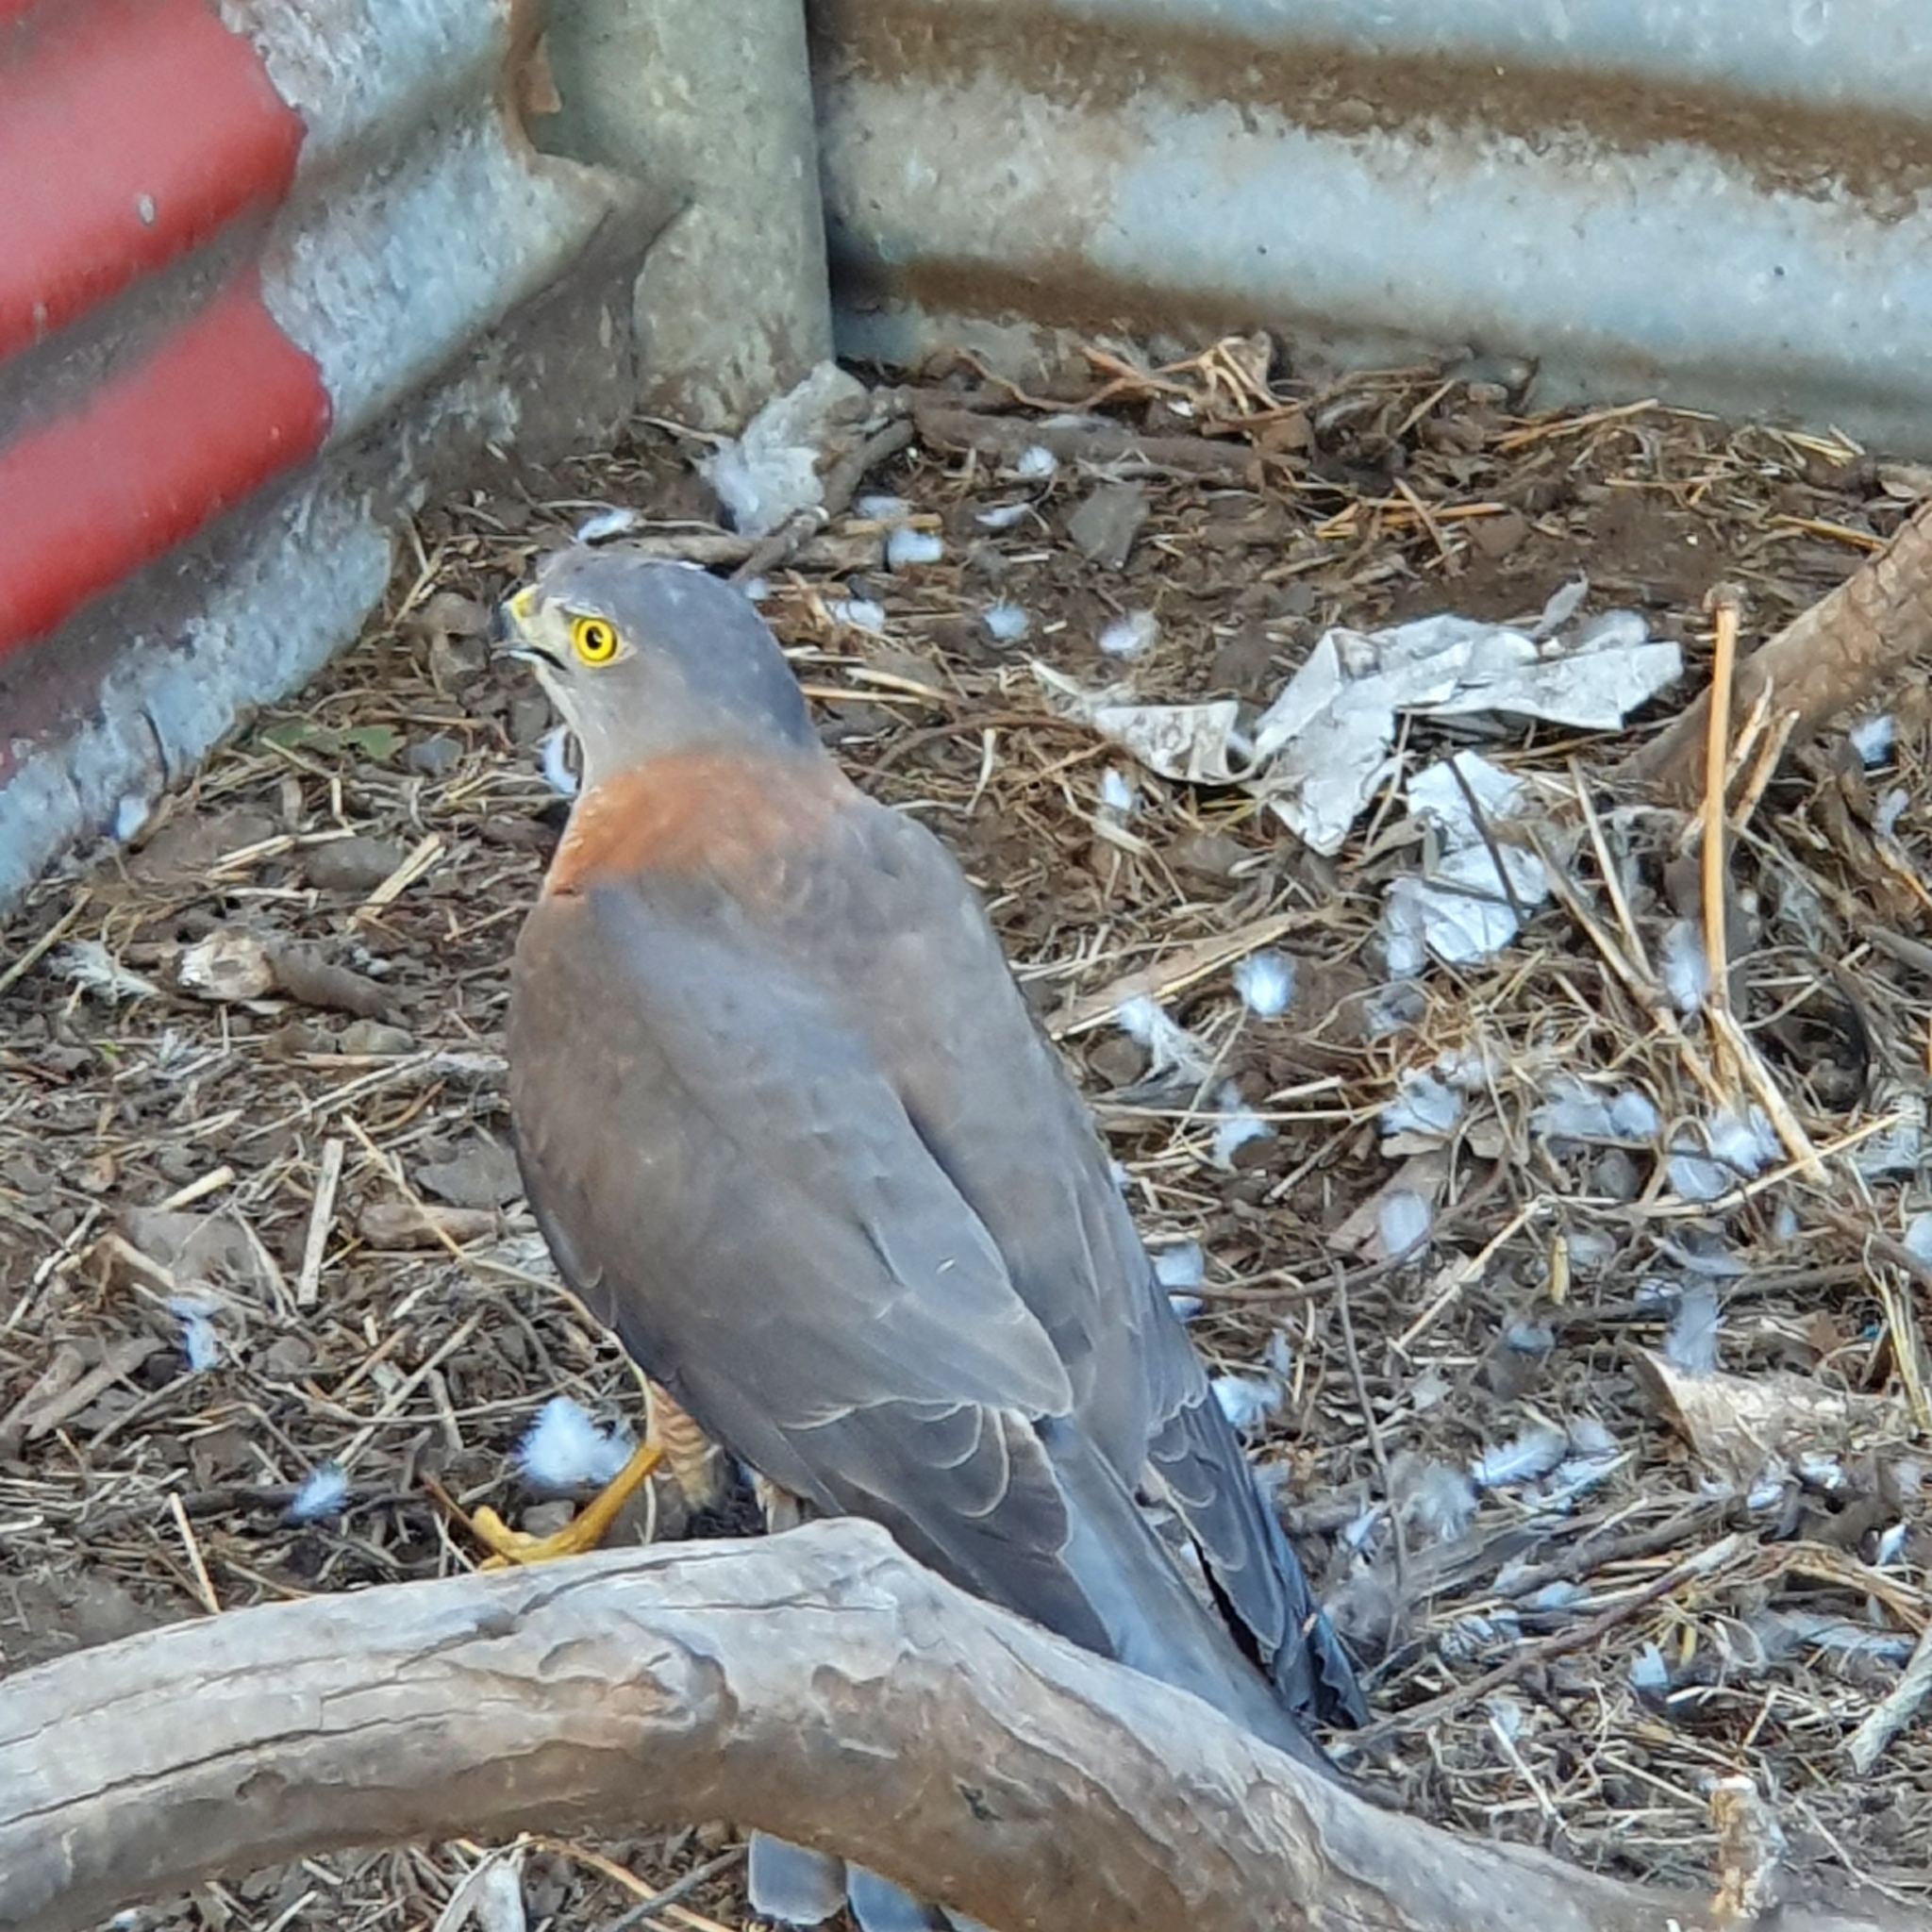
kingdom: Animalia
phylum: Chordata
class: Aves
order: Accipitriformes
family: Accipitridae
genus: Accipiter
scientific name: Accipiter fasciatus
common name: Brown goshawk
